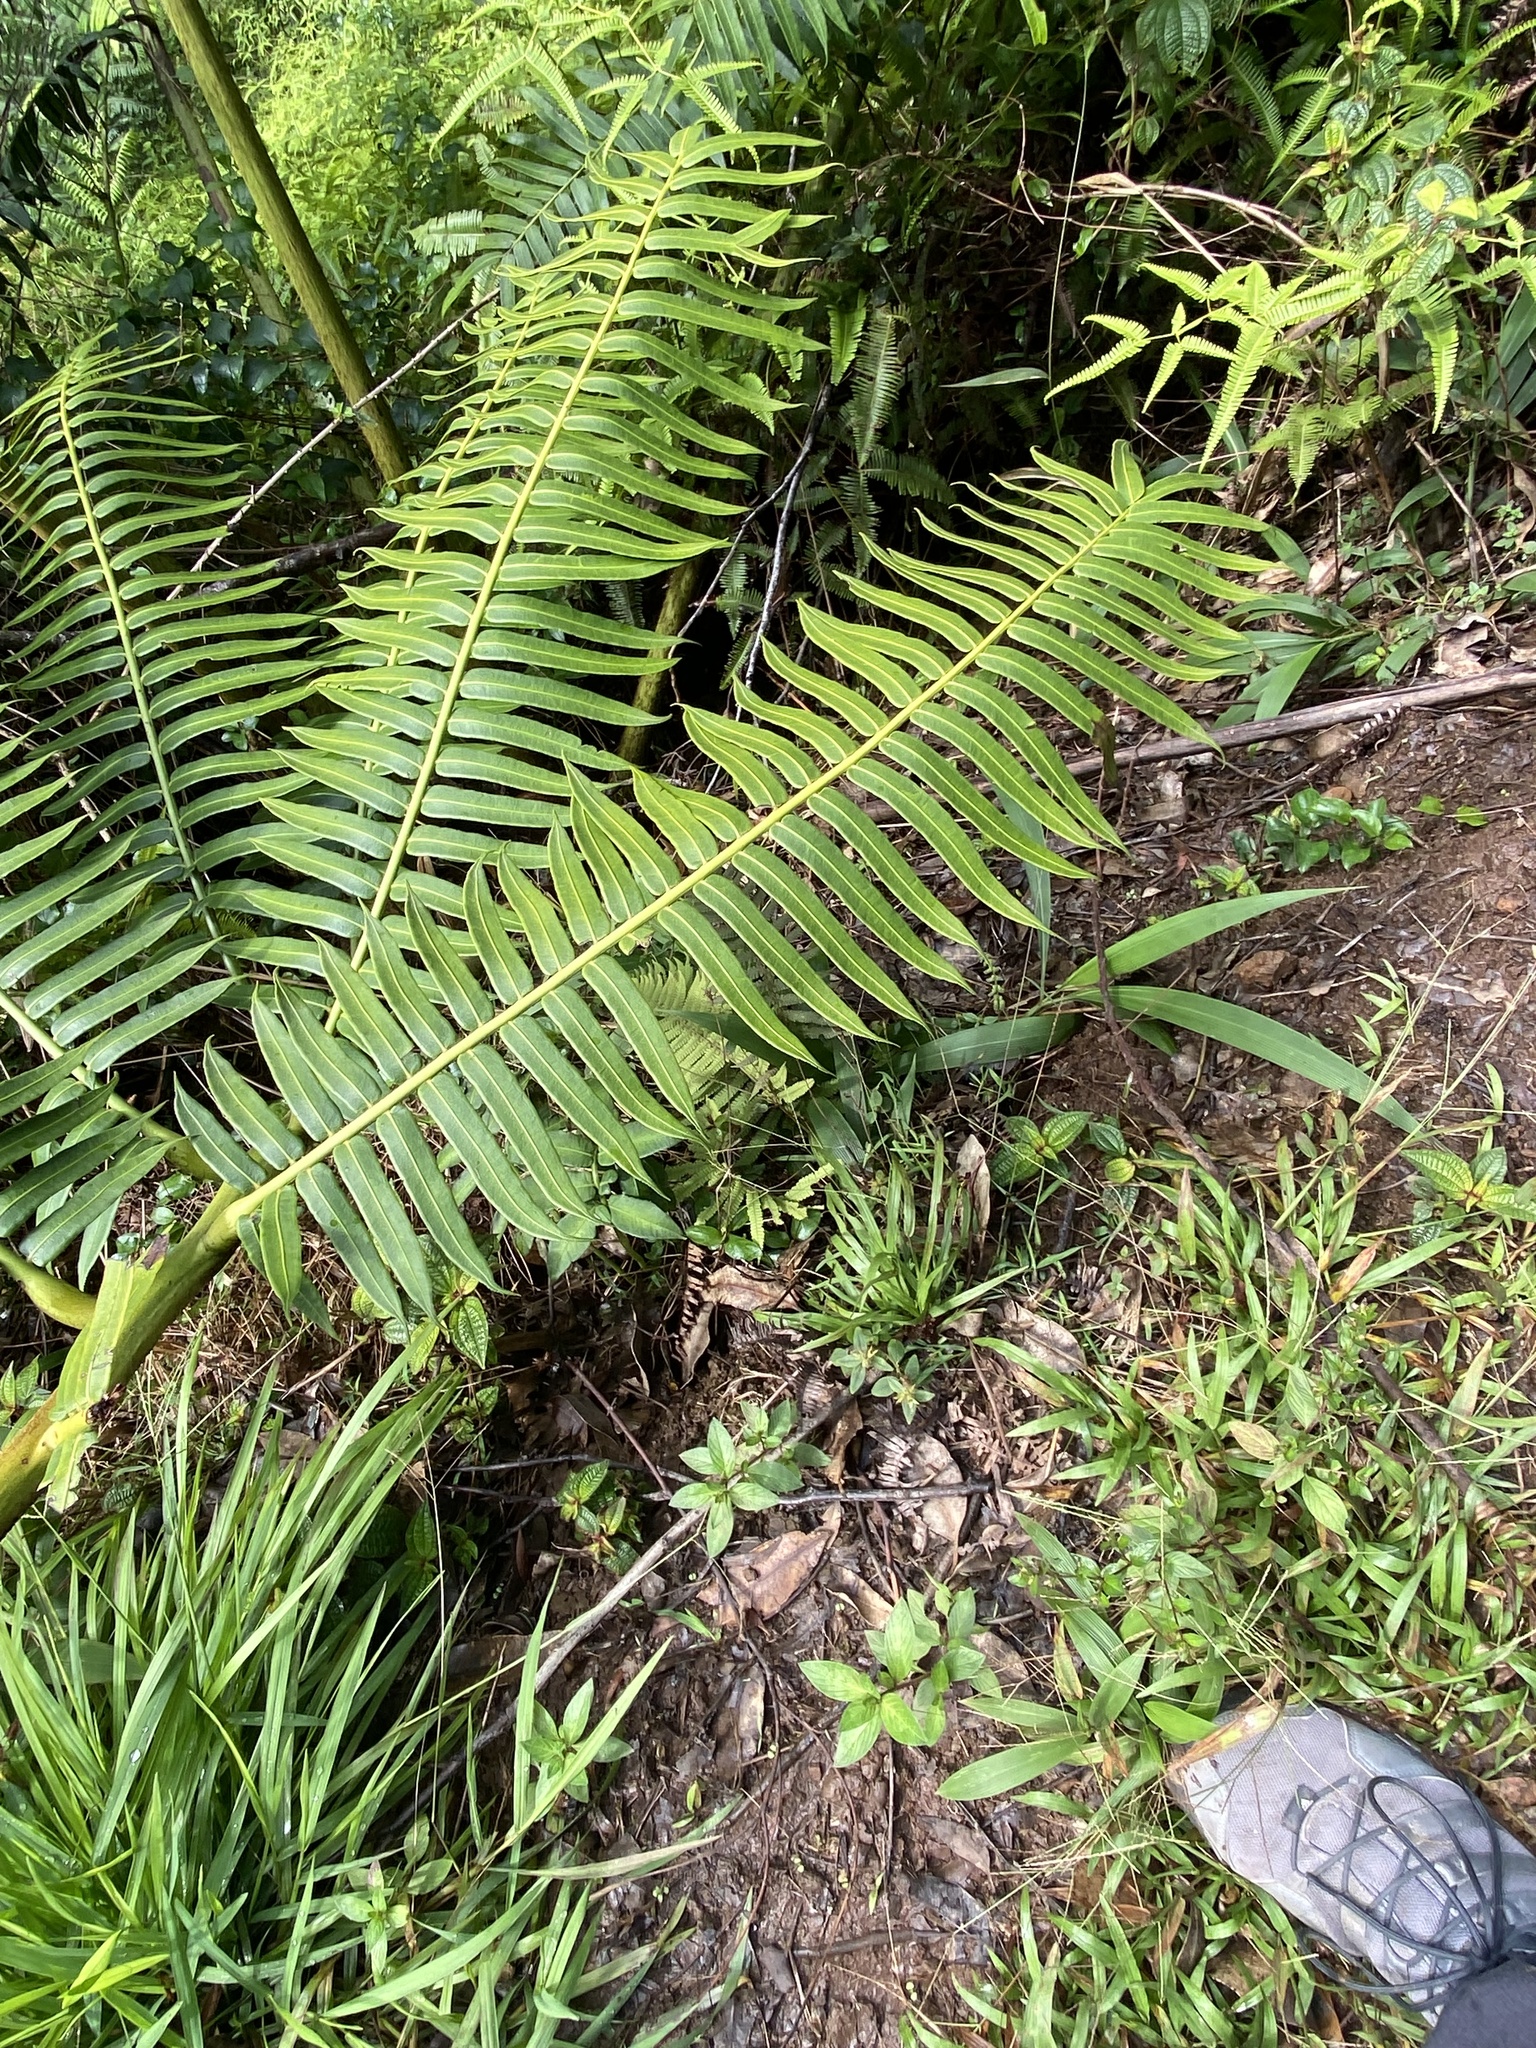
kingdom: Plantae
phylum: Tracheophyta
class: Polypodiopsida
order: Marattiales
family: Marattiaceae
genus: Angiopteris
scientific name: Angiopteris evecta
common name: Mule's-foot fern
